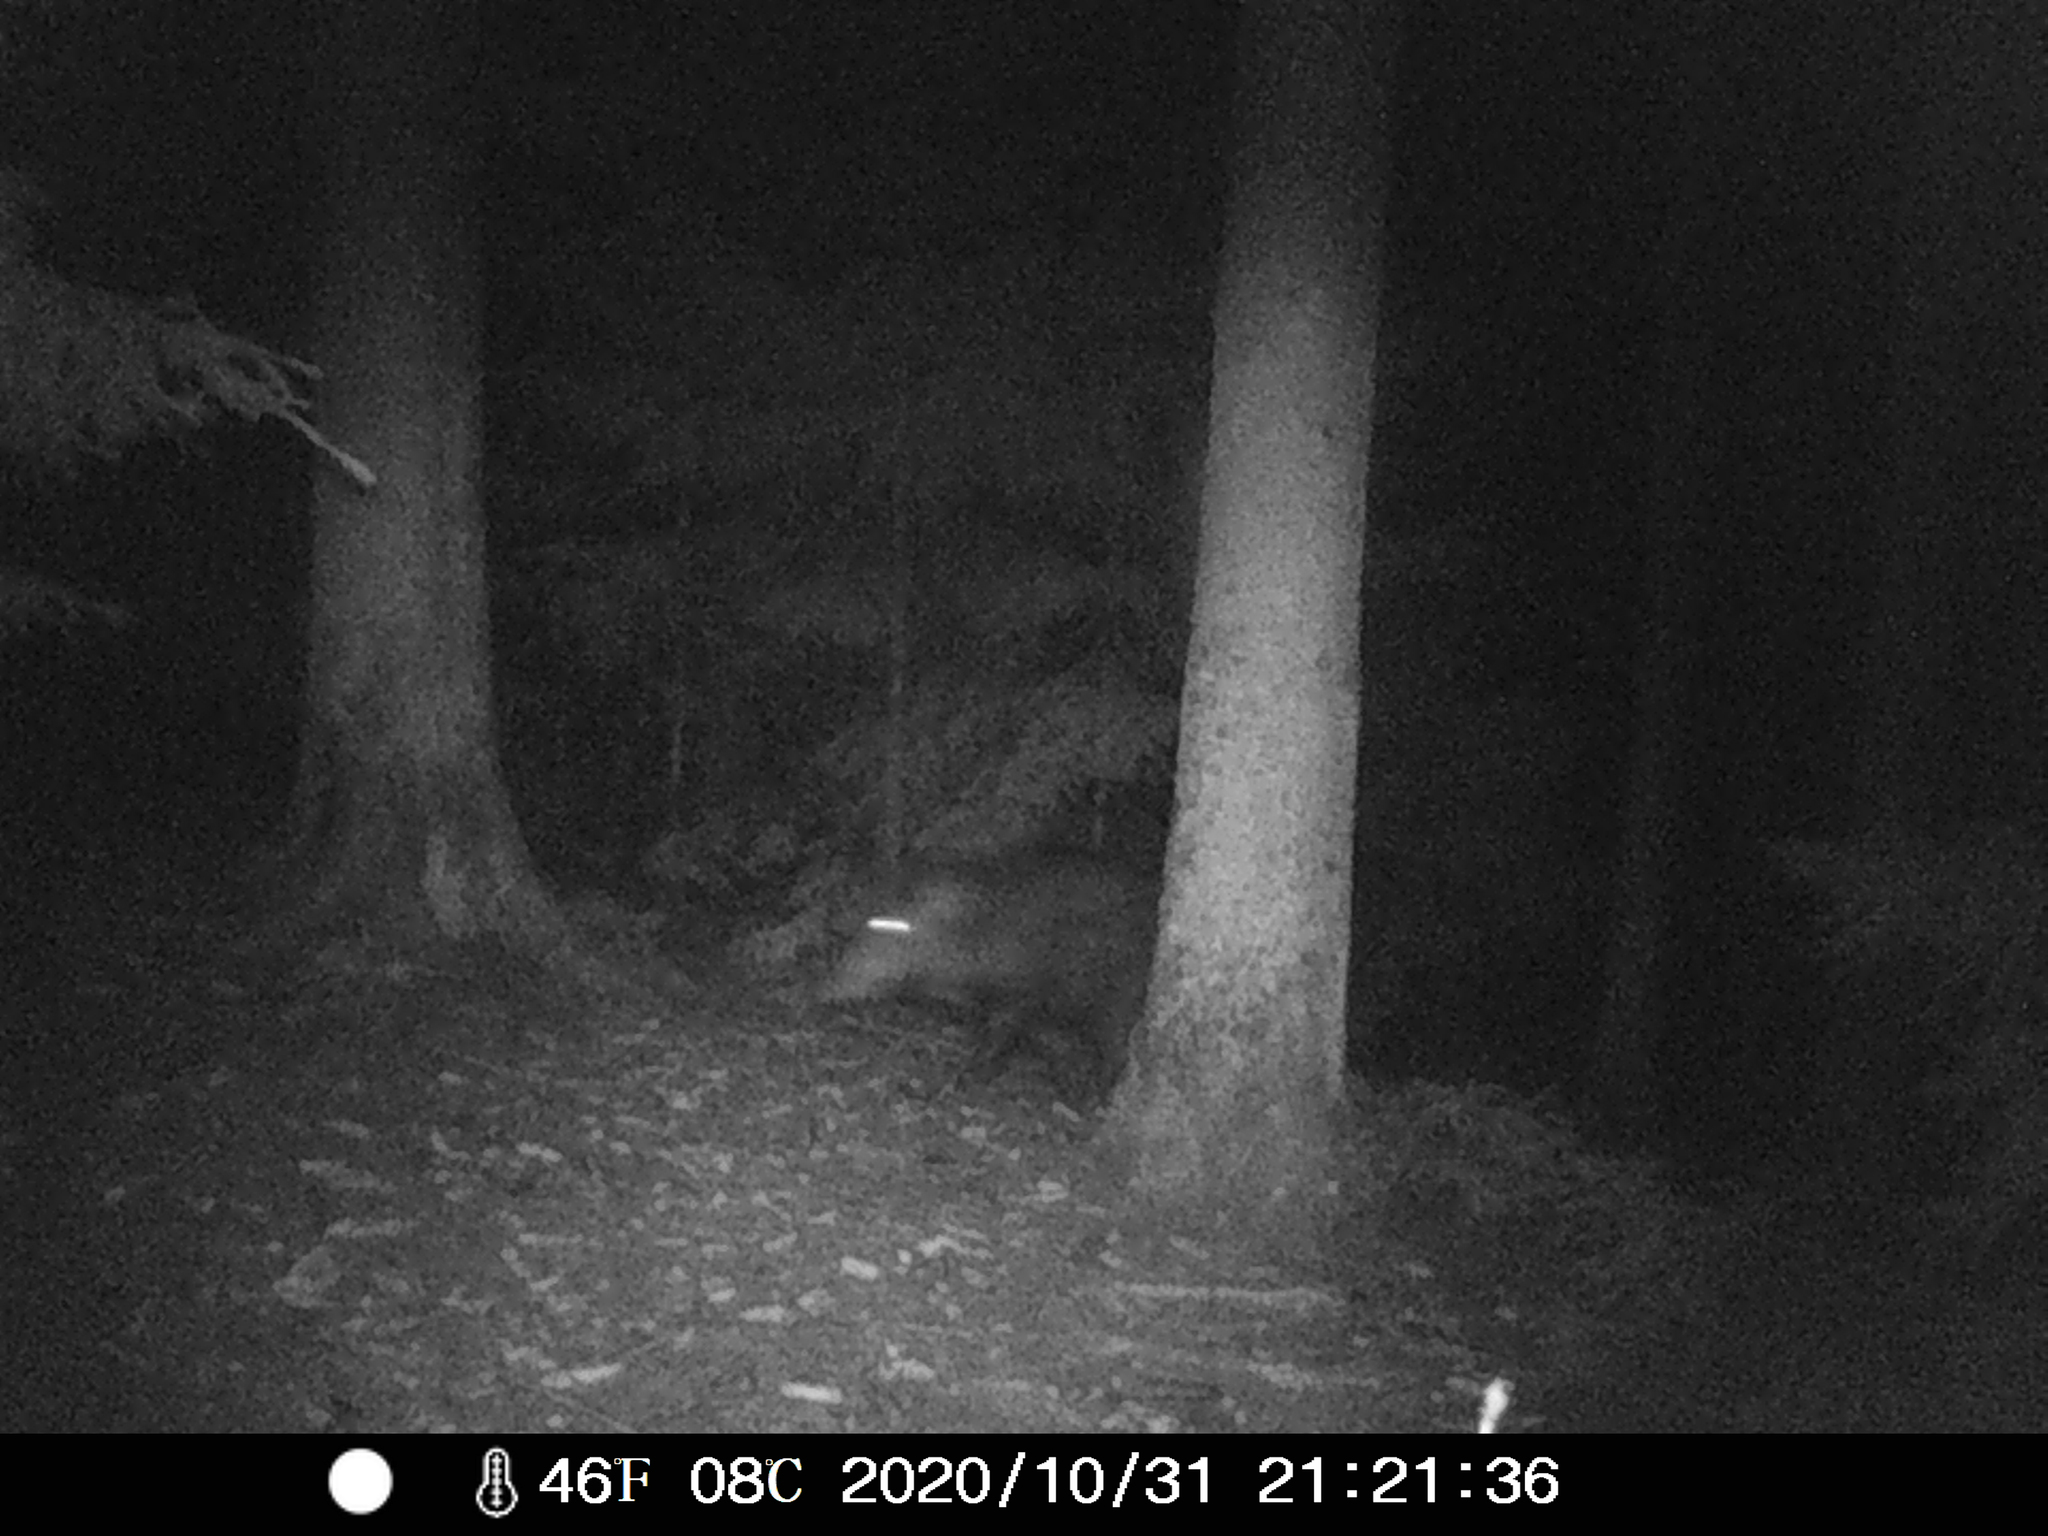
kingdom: Animalia
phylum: Chordata
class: Mammalia
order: Artiodactyla
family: Suidae
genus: Sus
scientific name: Sus scrofa
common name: Wild boar
